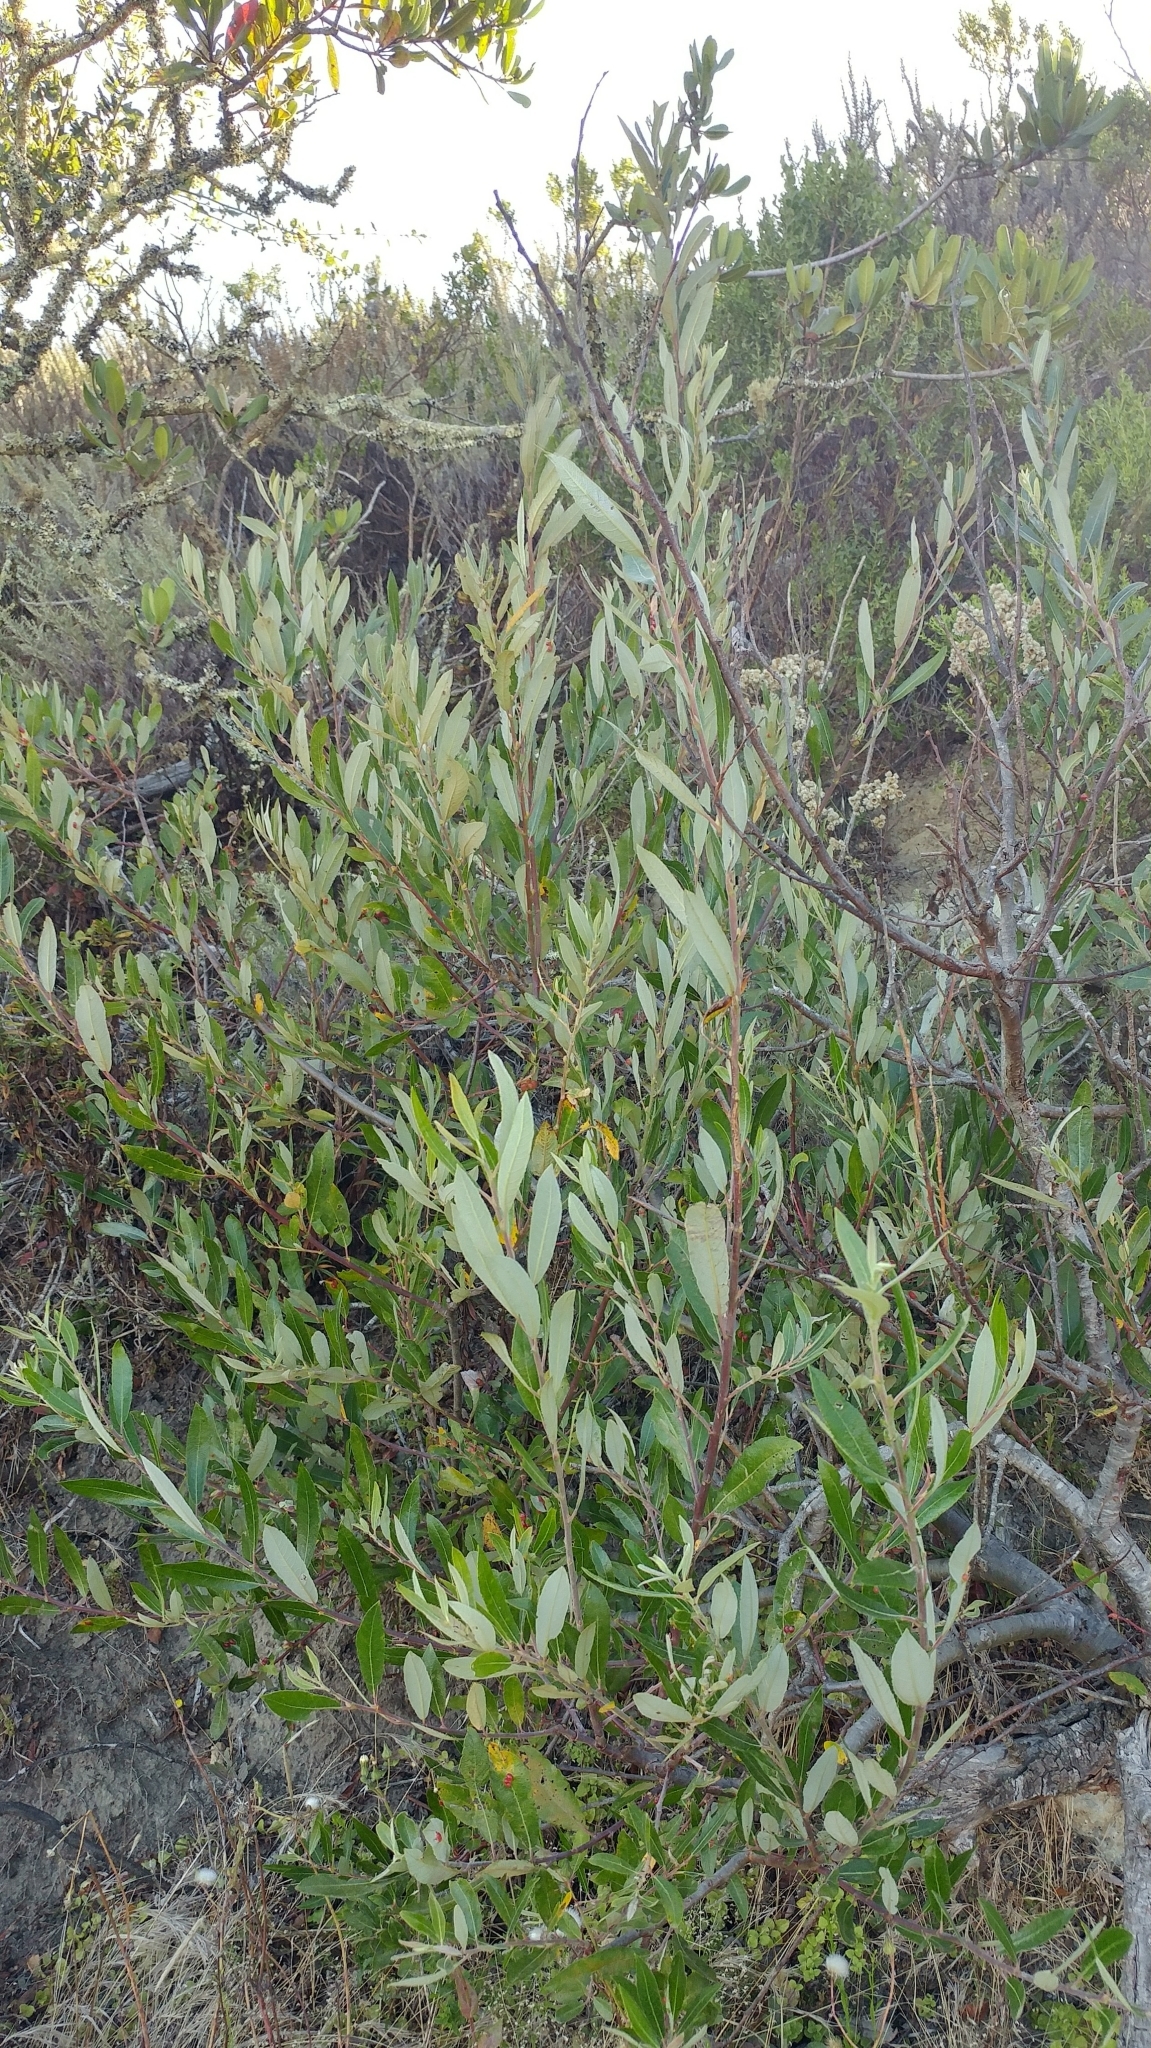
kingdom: Plantae
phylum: Tracheophyta
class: Magnoliopsida
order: Malpighiales
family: Salicaceae
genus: Salix
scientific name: Salix lasiolepis
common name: Arroyo willow
